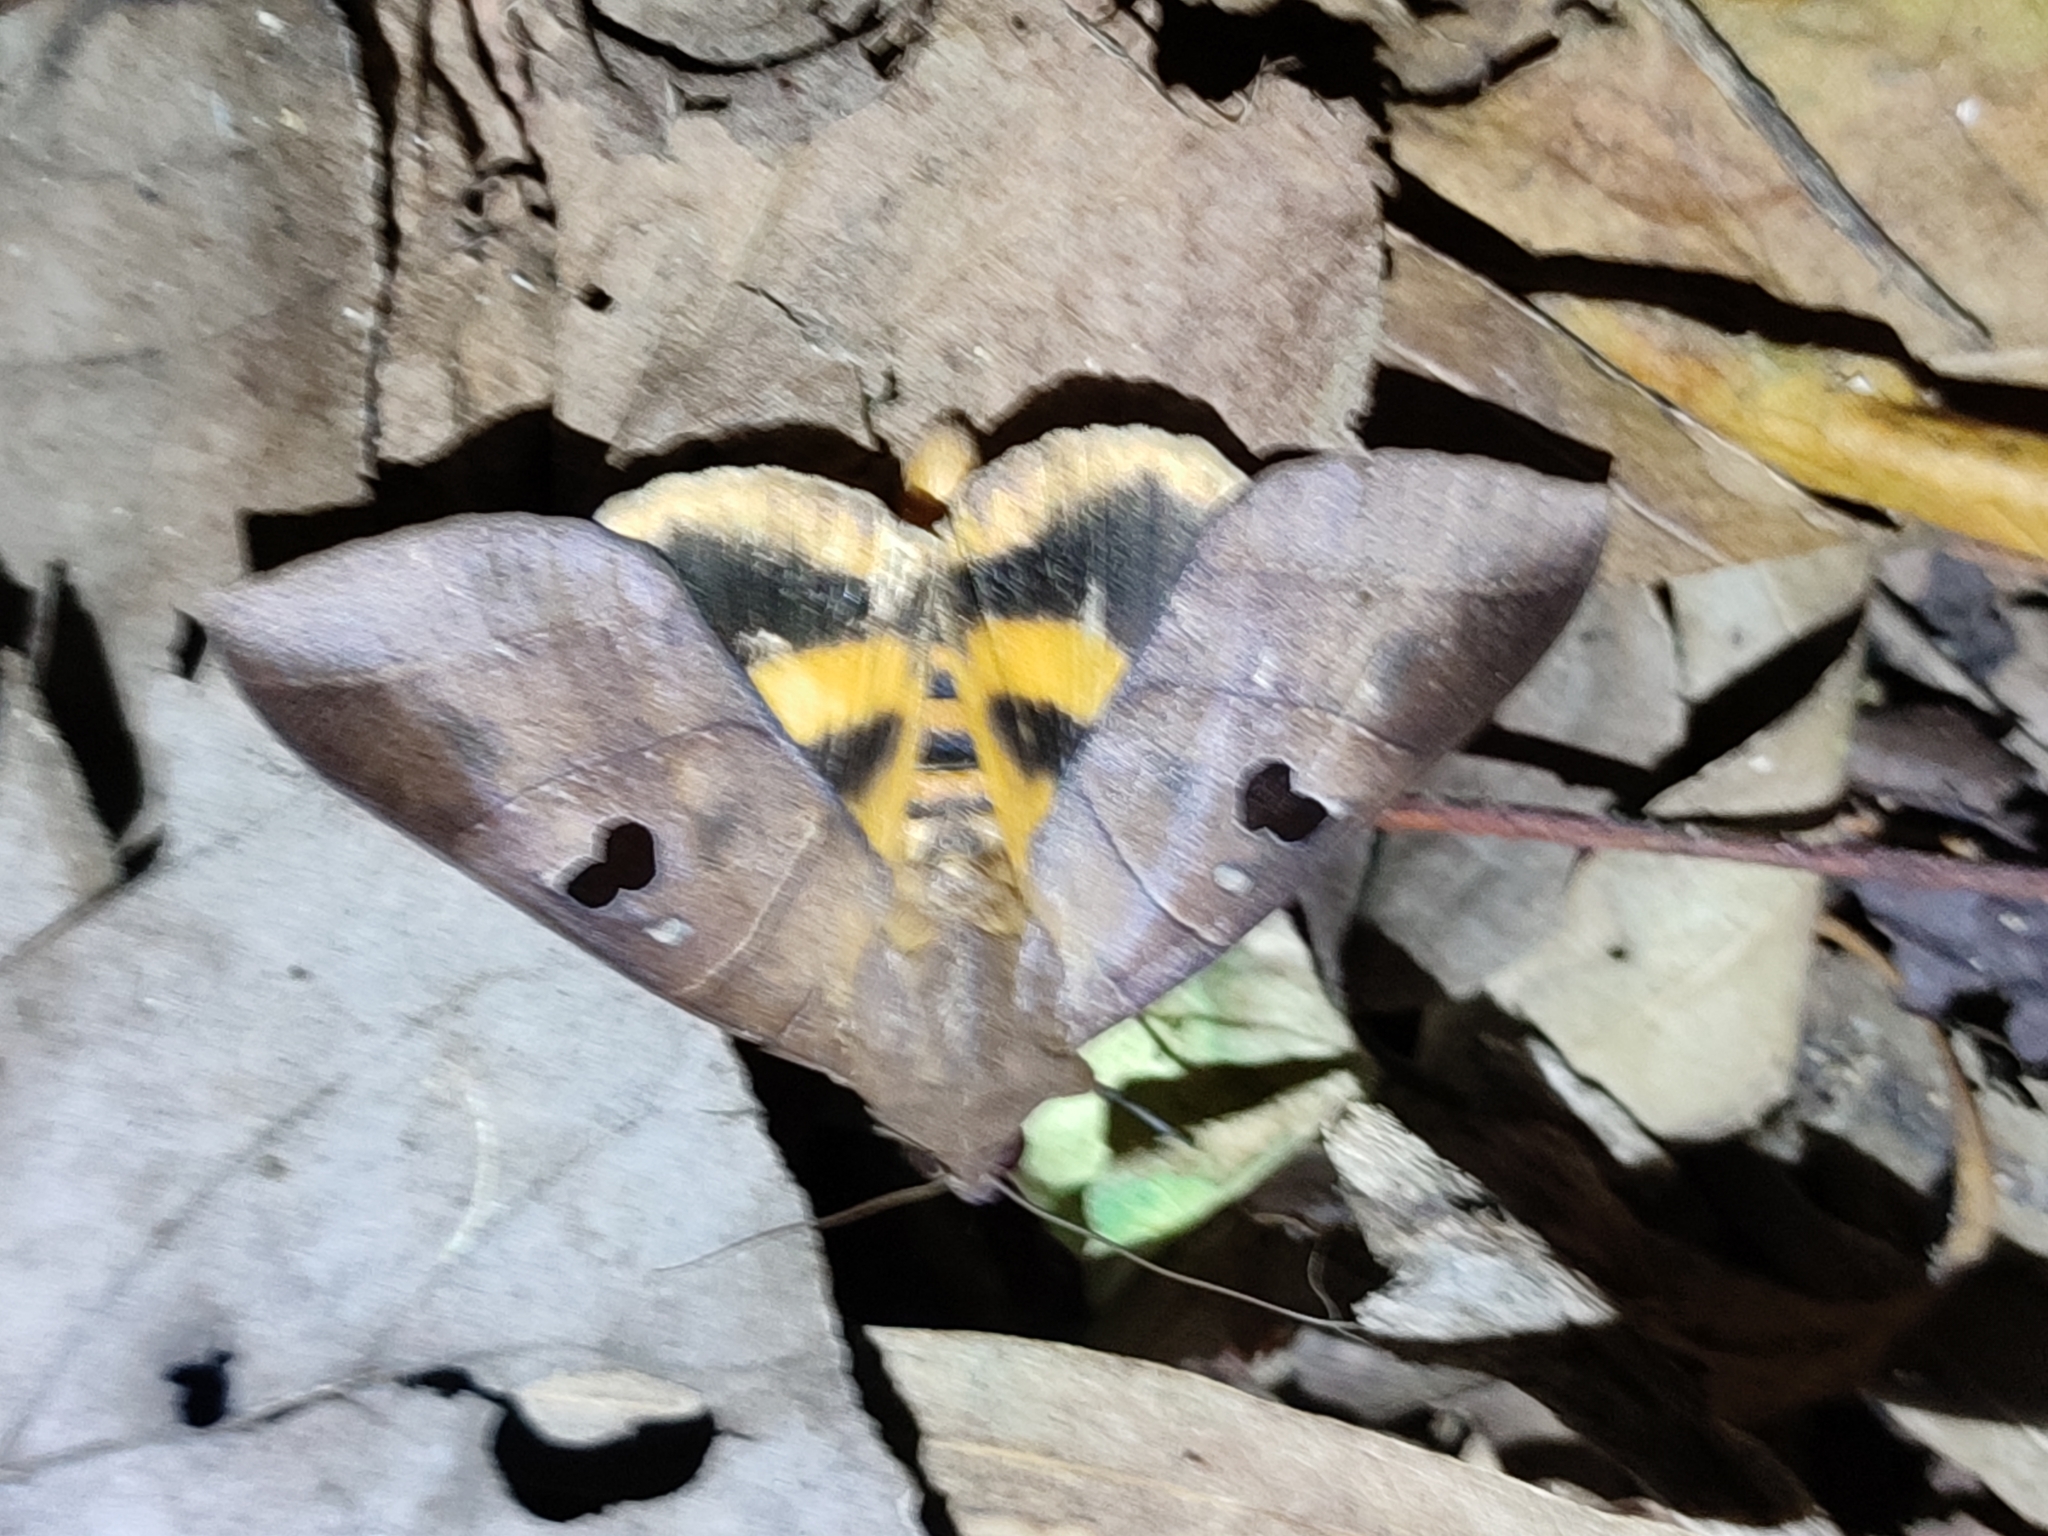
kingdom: Animalia
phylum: Arthropoda
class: Insecta
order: Lepidoptera
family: Erebidae
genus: Thyas
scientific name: Thyas coronata
